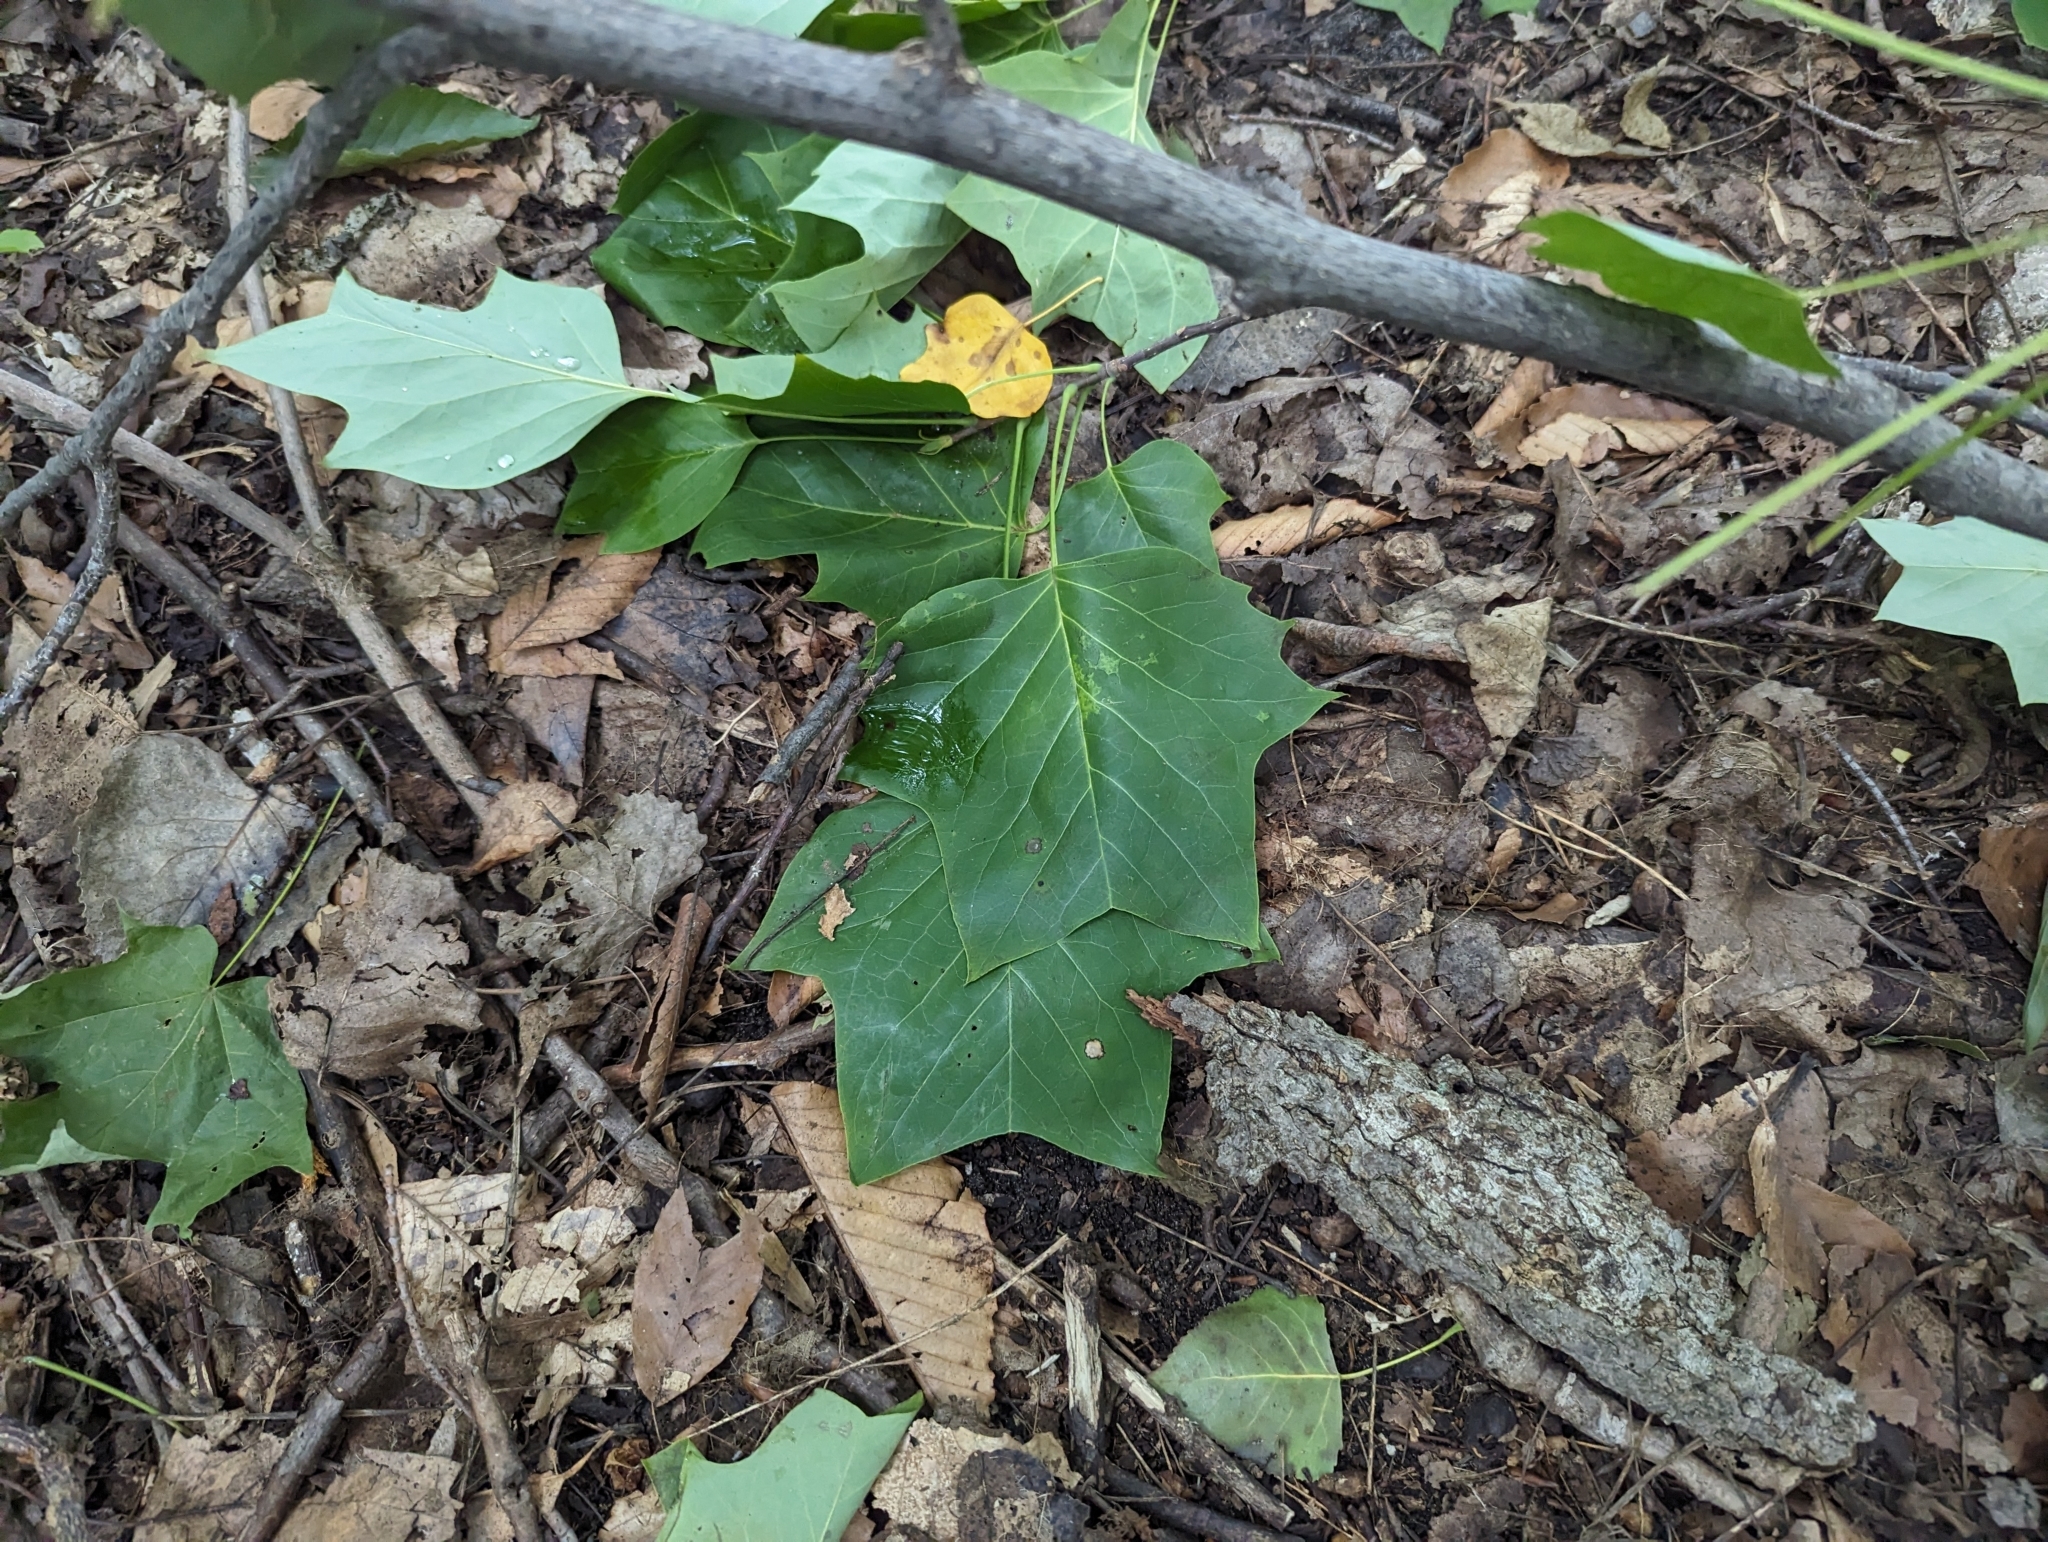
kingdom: Plantae
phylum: Tracheophyta
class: Magnoliopsida
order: Magnoliales
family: Magnoliaceae
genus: Liriodendron
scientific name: Liriodendron tulipifera
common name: Tulip tree
